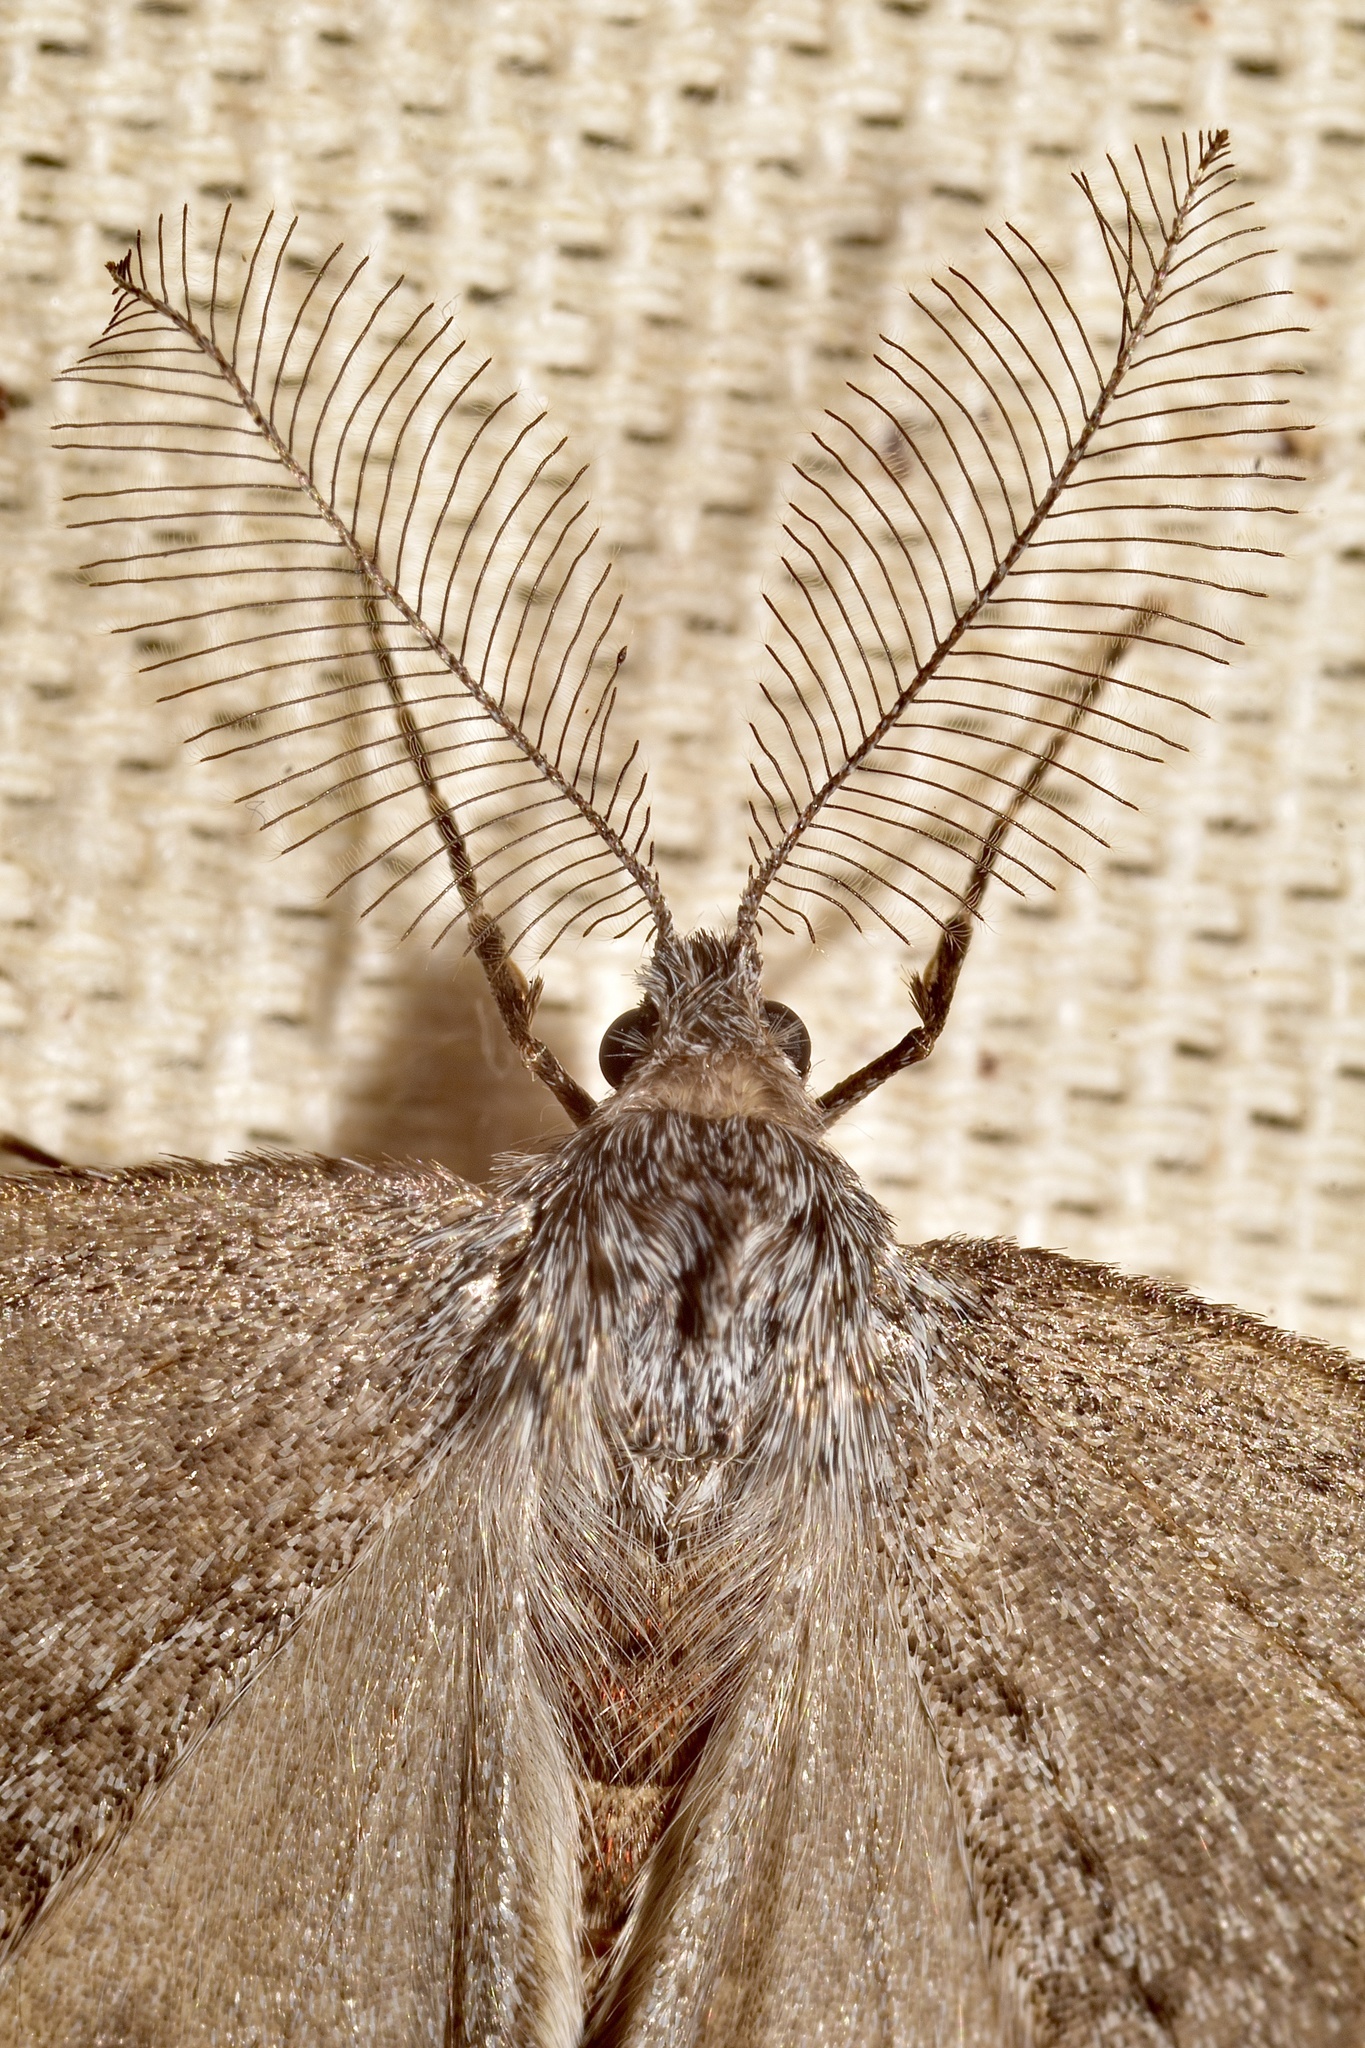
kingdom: Animalia
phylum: Arthropoda
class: Insecta
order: Lepidoptera
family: Geometridae
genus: Phigalia
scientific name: Phigalia plumogeraria
